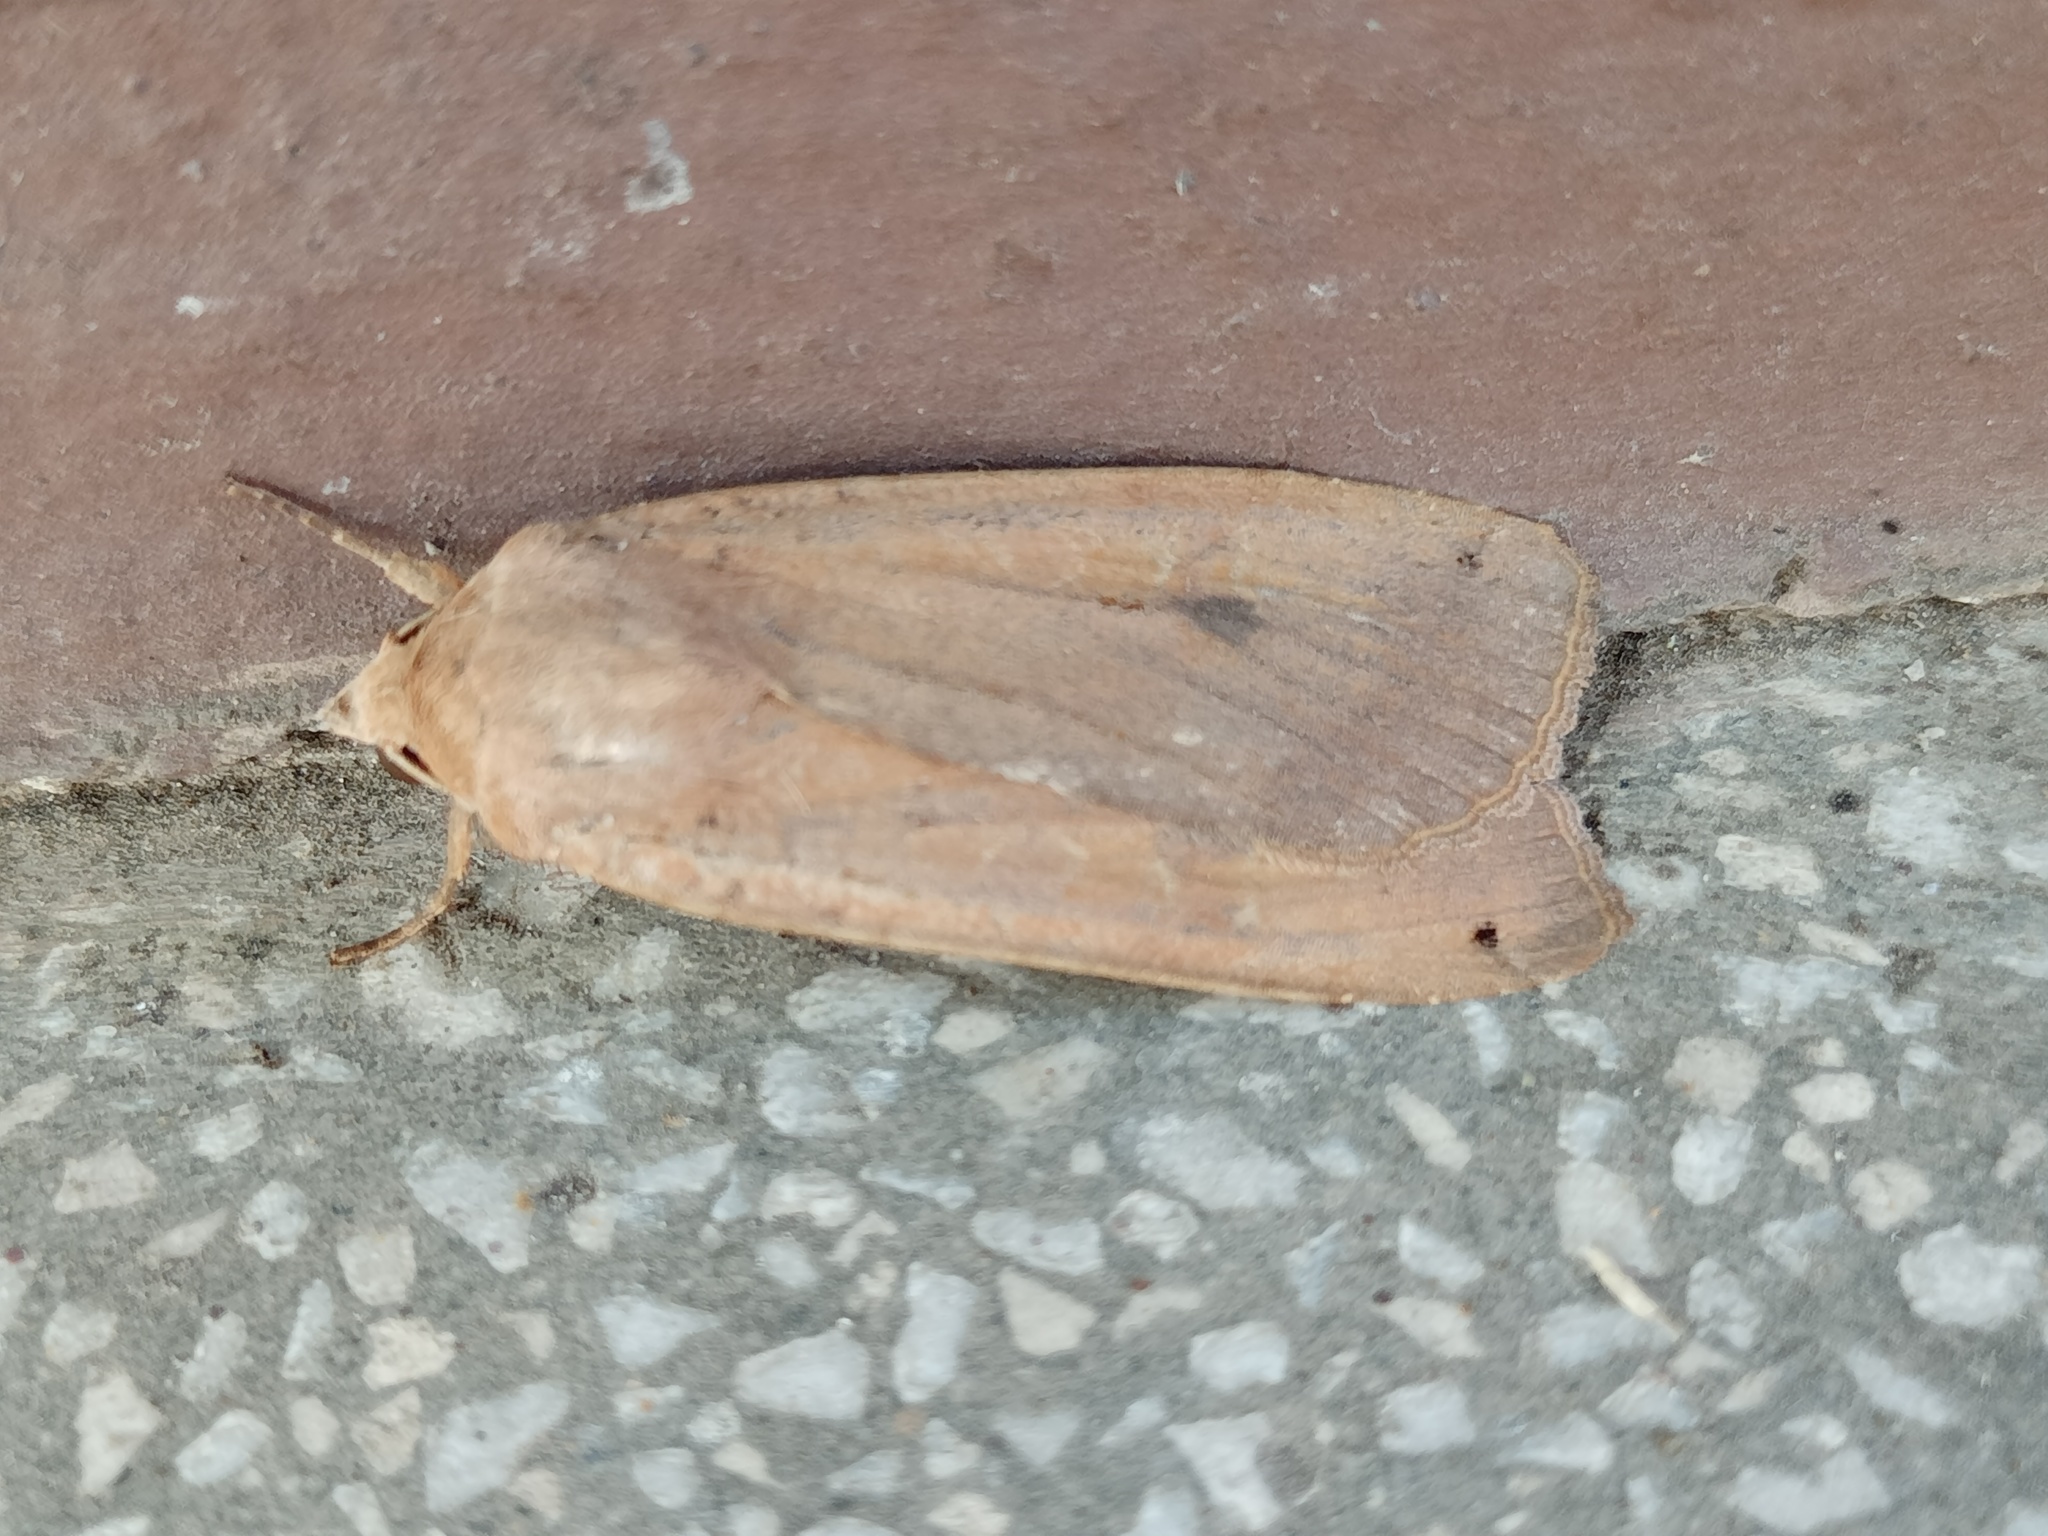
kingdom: Animalia
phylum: Arthropoda
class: Insecta
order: Lepidoptera
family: Noctuidae
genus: Noctua
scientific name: Noctua pronuba
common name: Large yellow underwing
